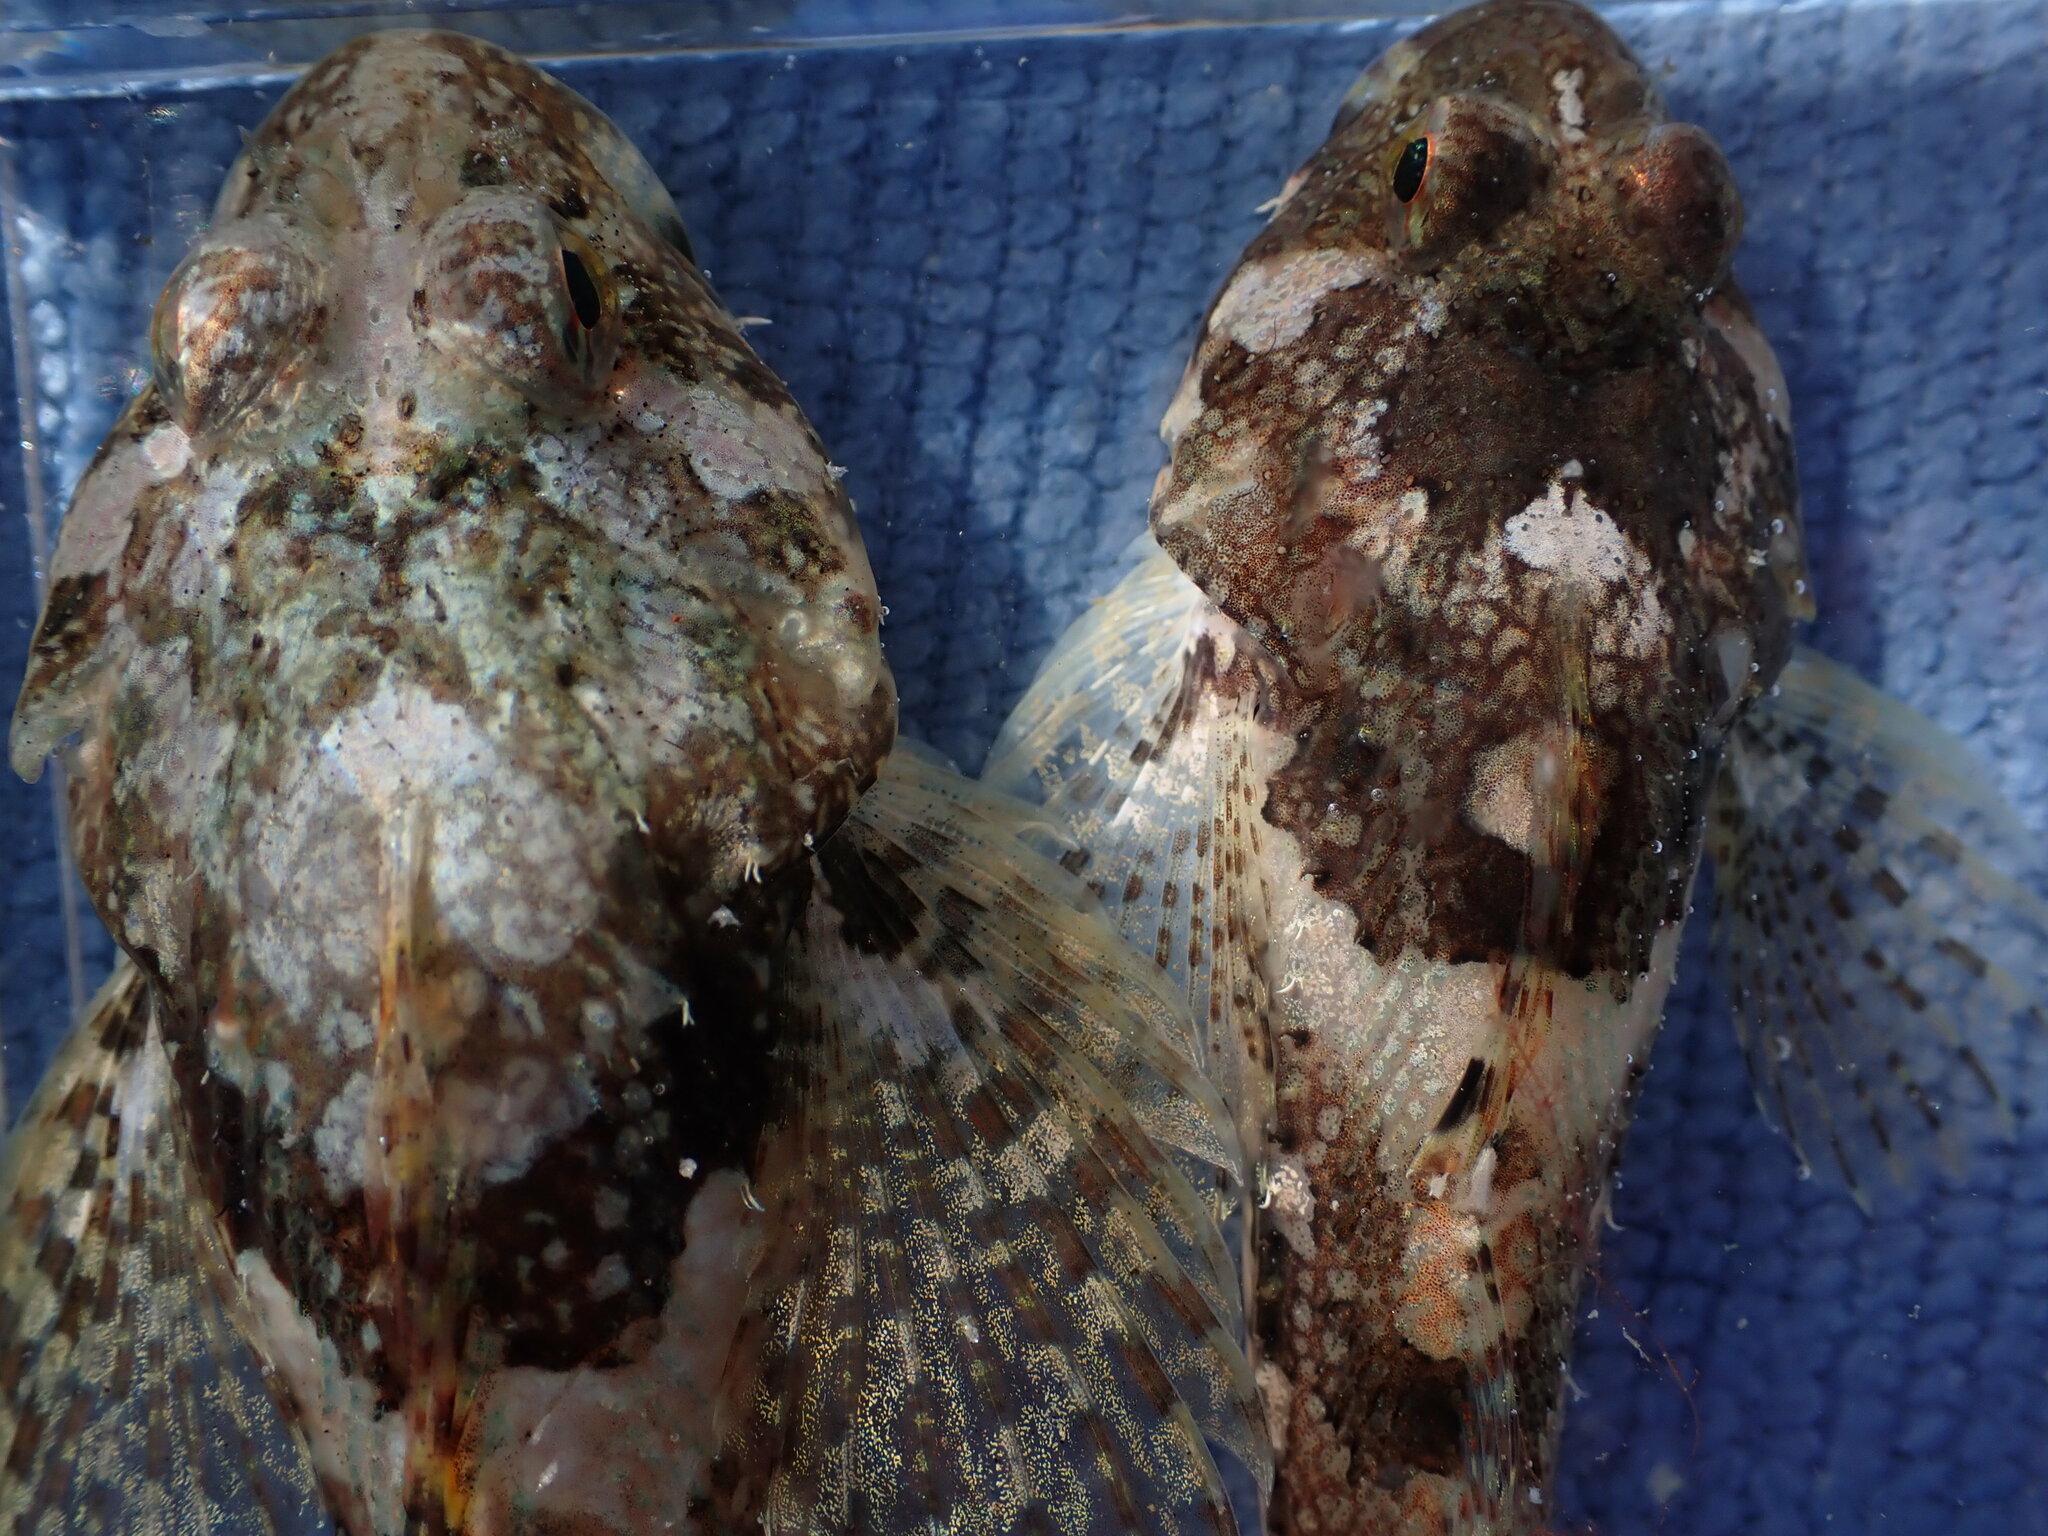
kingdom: Animalia
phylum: Chordata
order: Scorpaeniformes
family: Cottidae
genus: Artedius
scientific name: Artedius fenestralis
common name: Padded sculpin
